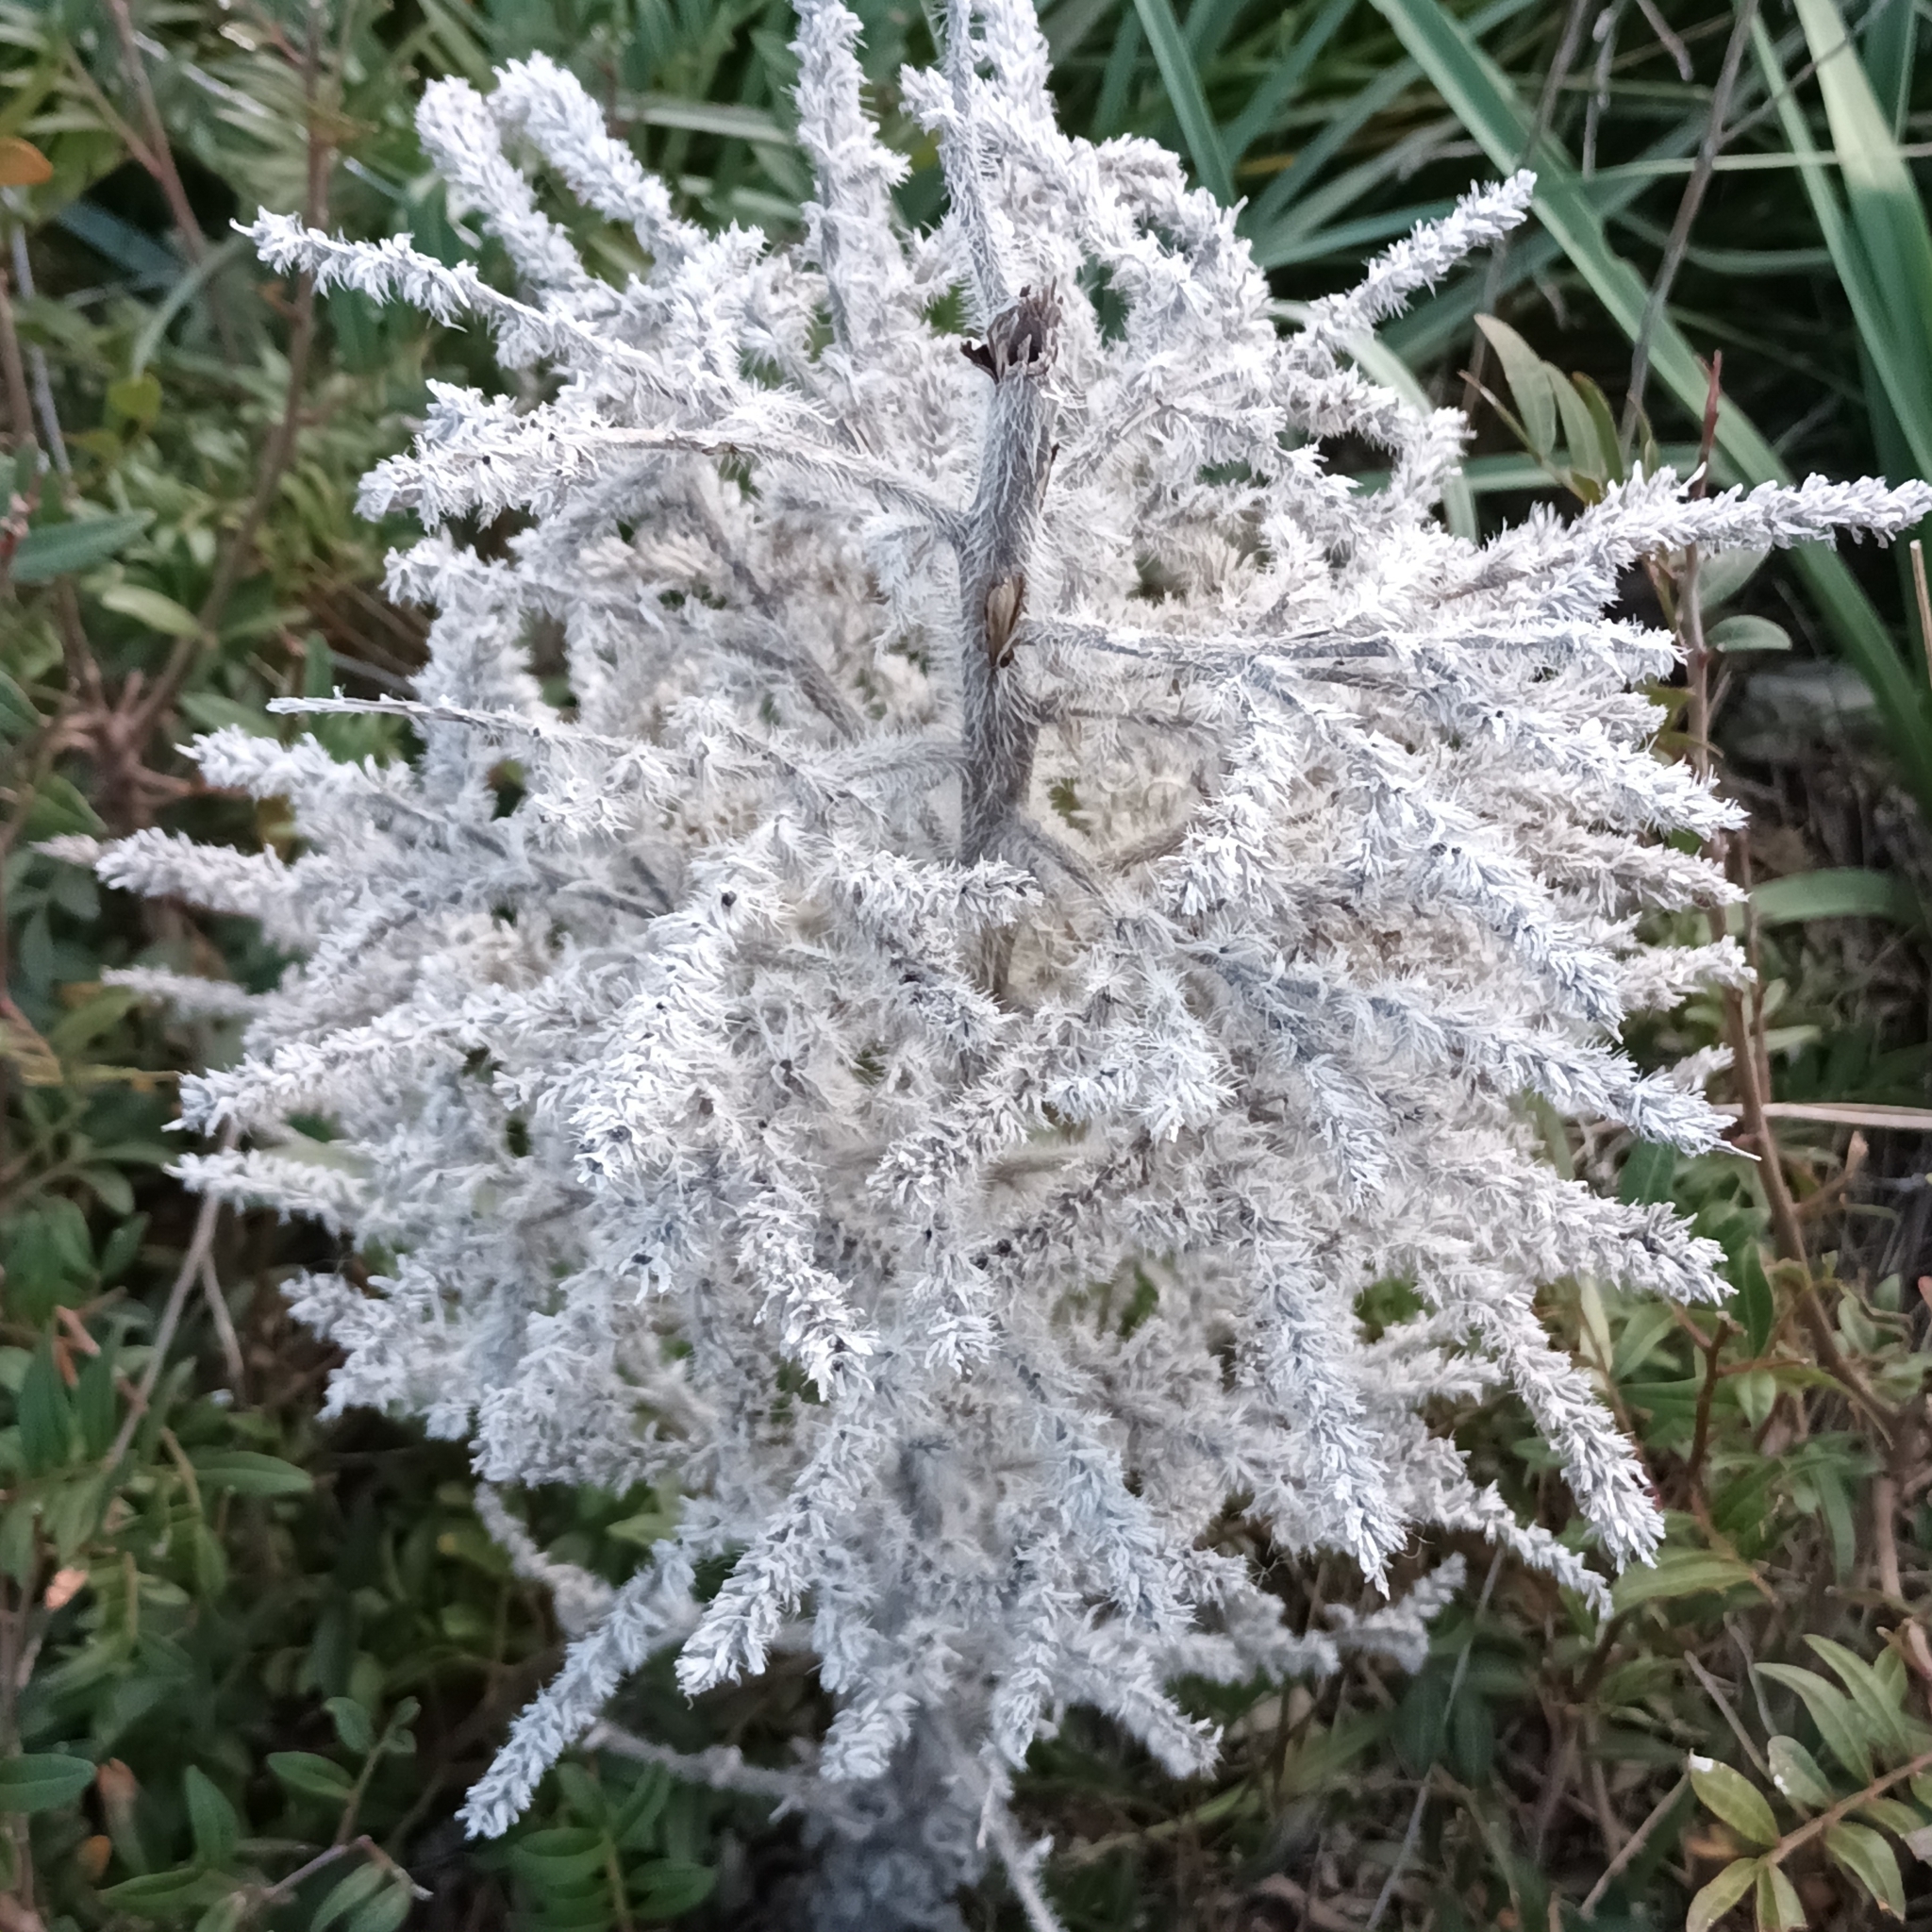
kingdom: Plantae
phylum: Tracheophyta
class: Magnoliopsida
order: Boraginales
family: Boraginaceae
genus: Echium
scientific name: Echium italicum
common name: Italian viper's bugloss
